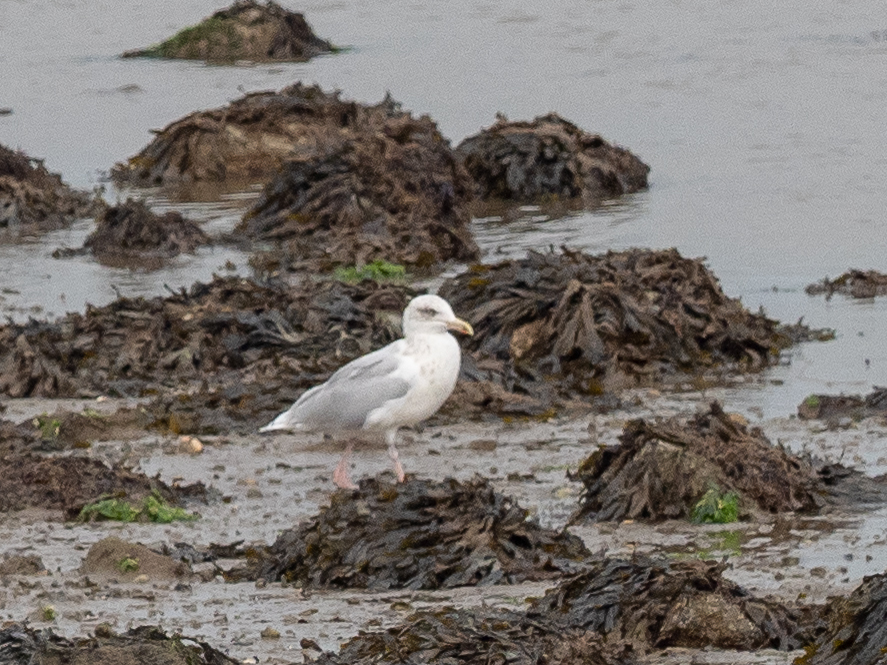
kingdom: Animalia
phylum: Chordata
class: Aves
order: Charadriiformes
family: Laridae
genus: Larus
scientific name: Larus argentatus
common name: Herring gull
